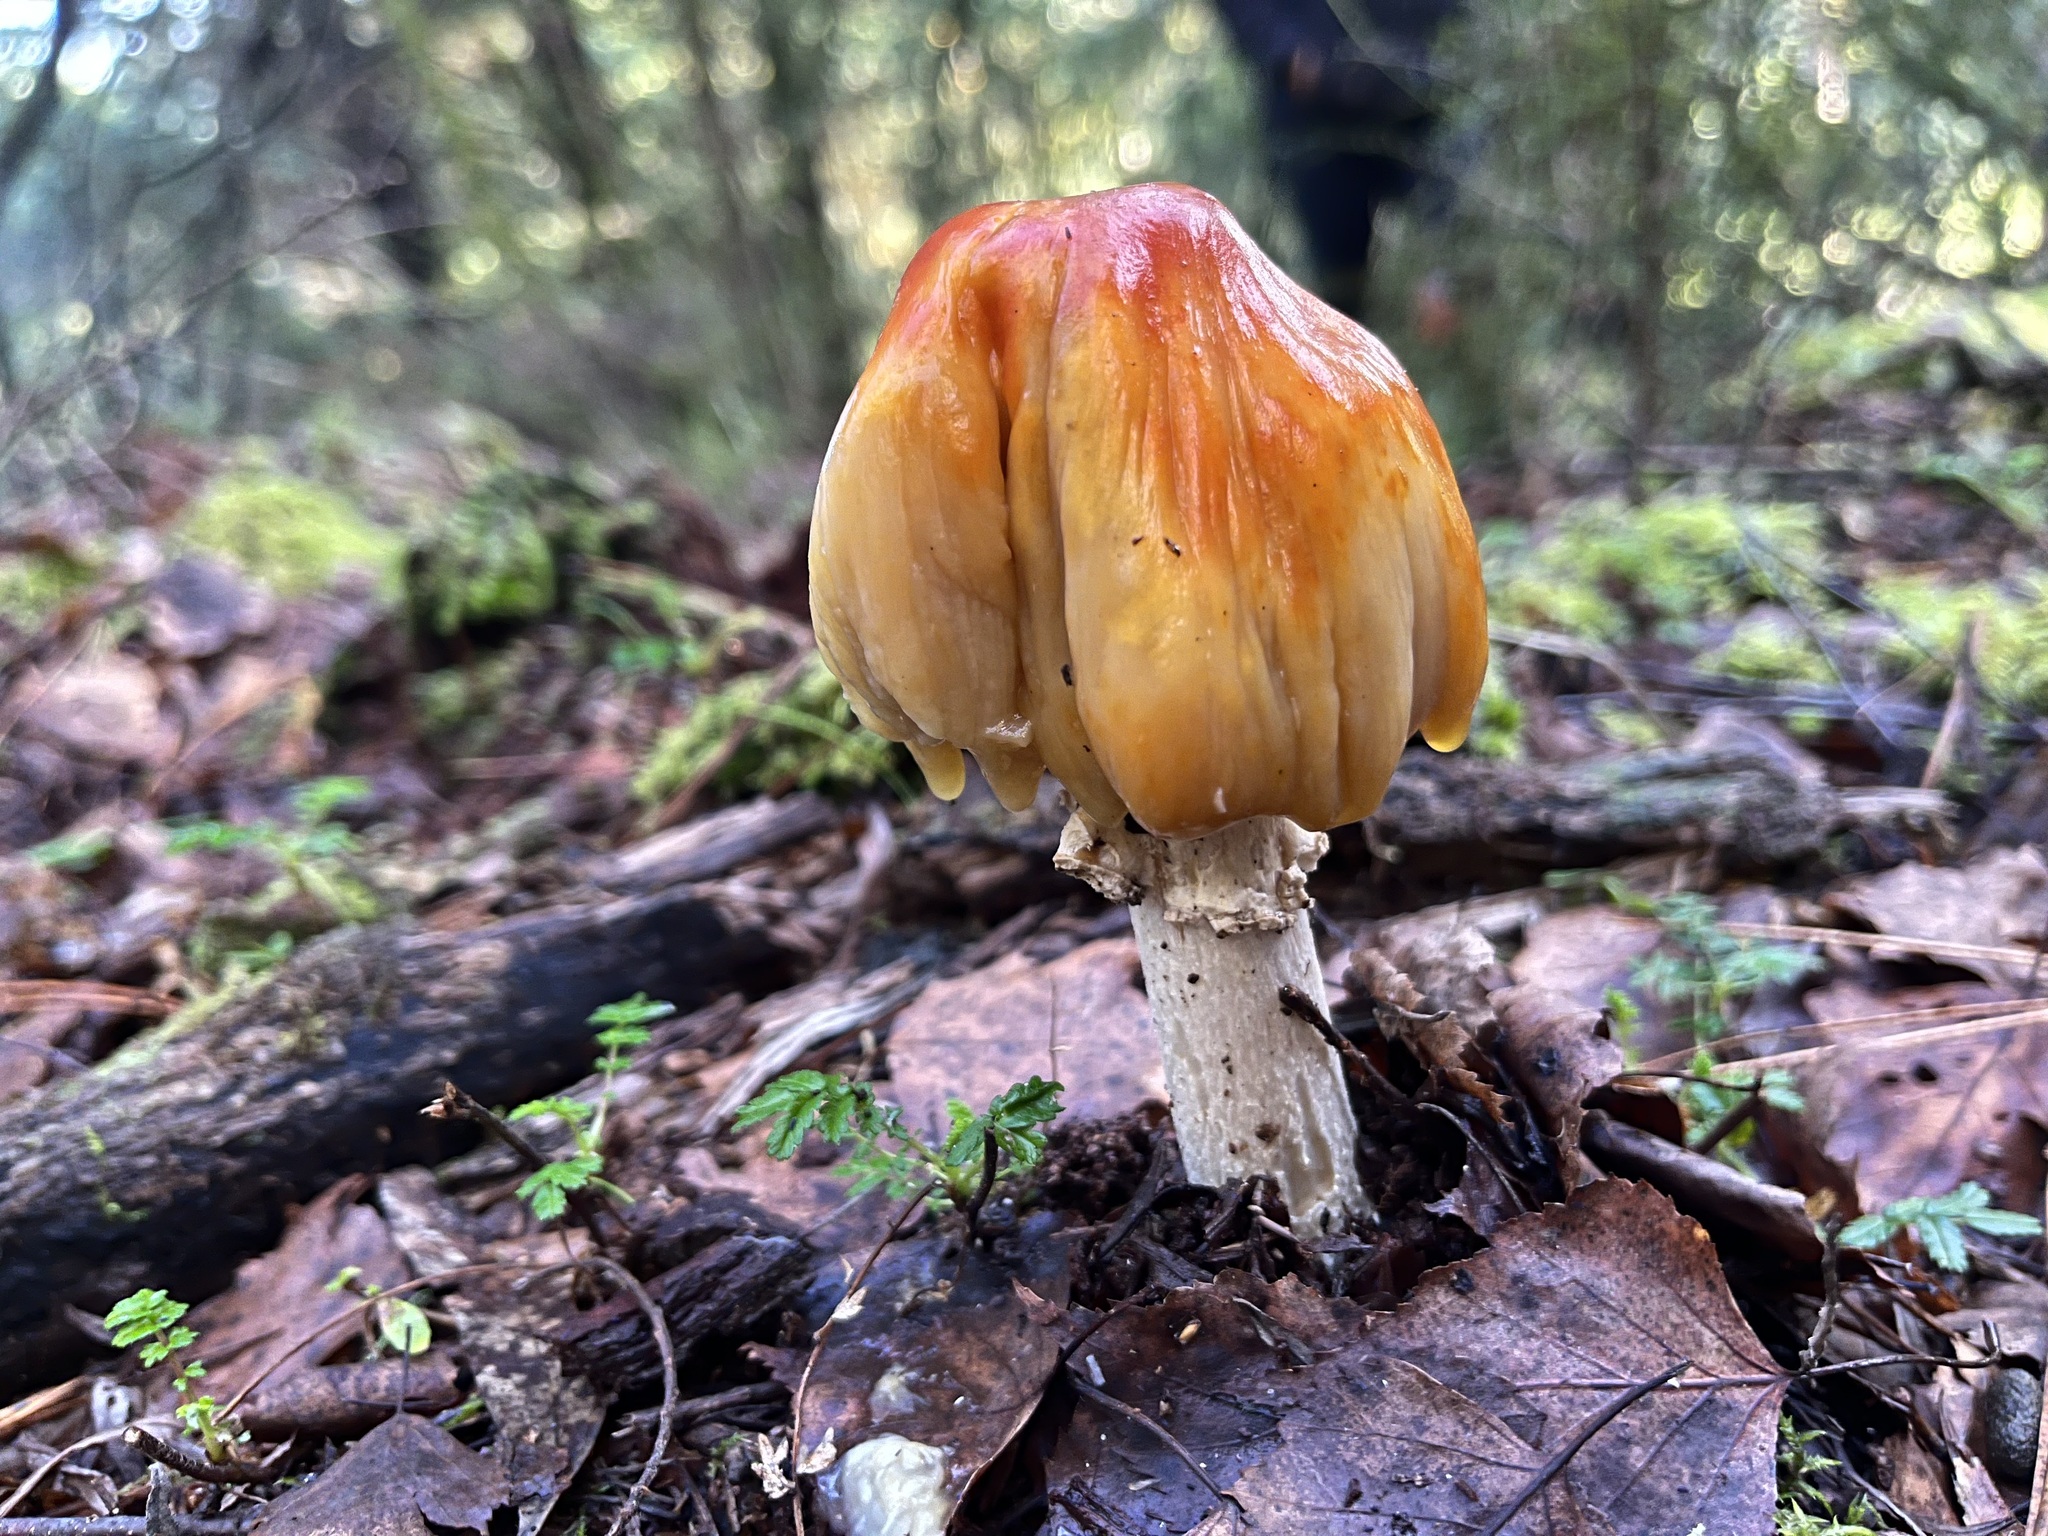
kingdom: Fungi
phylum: Basidiomycota
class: Agaricomycetes
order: Agaricales
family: Amanitaceae
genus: Amanita
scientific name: Amanita muscaria
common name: Fly agaric
